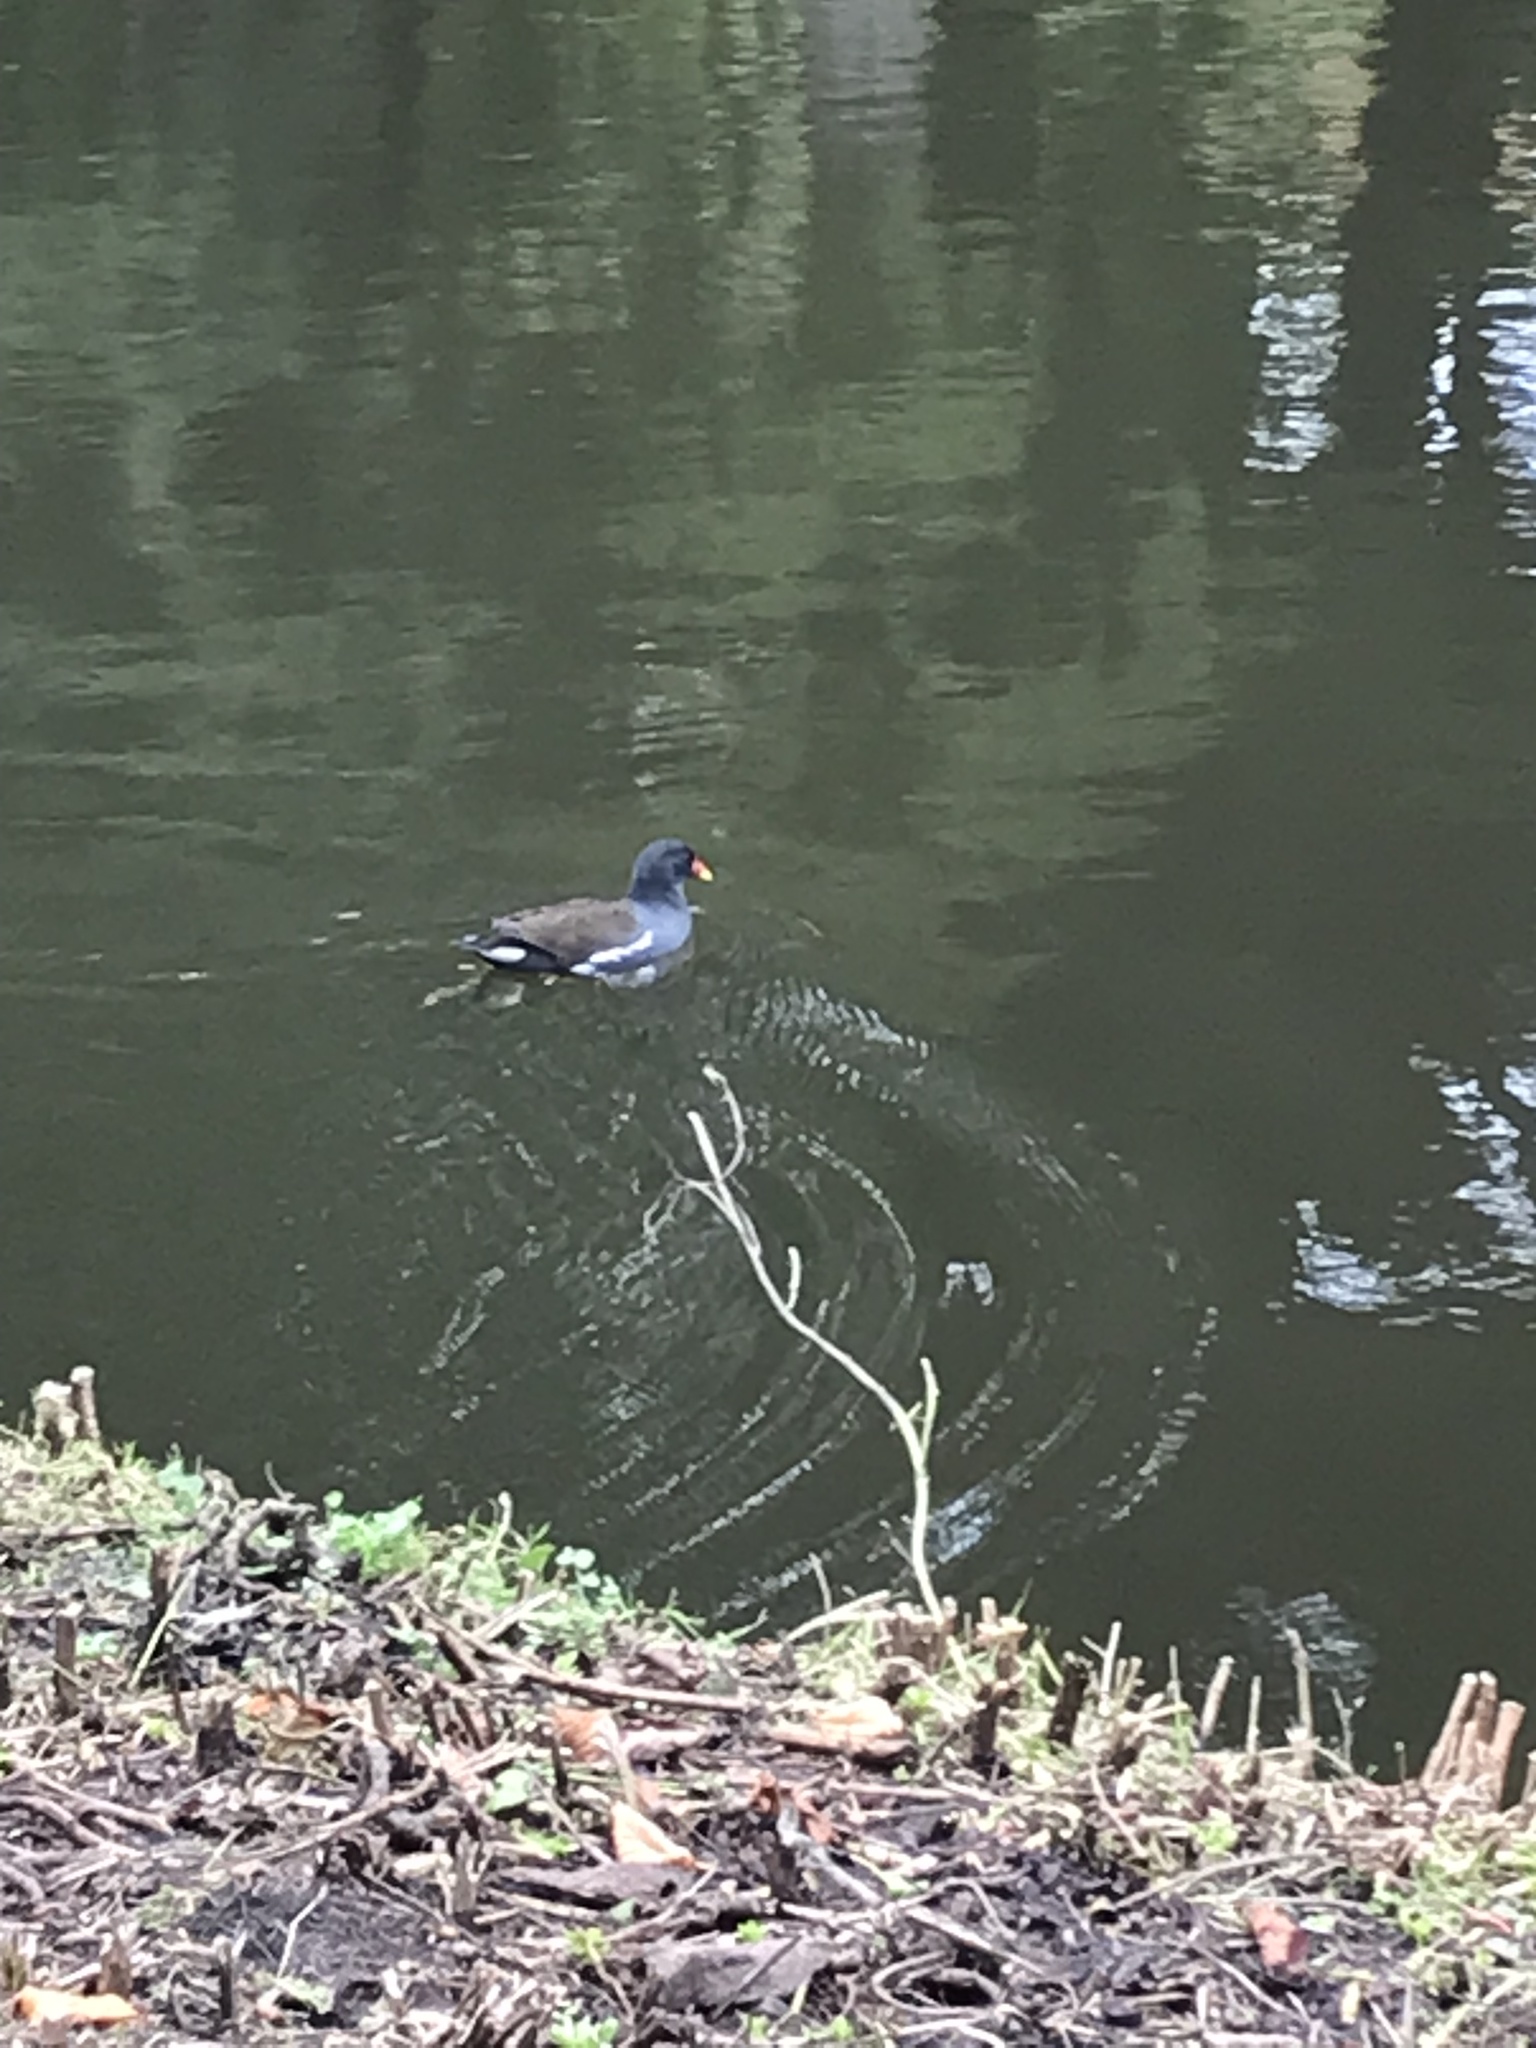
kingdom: Animalia
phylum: Chordata
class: Aves
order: Gruiformes
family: Rallidae
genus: Gallinula
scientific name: Gallinula chloropus
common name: Common moorhen
